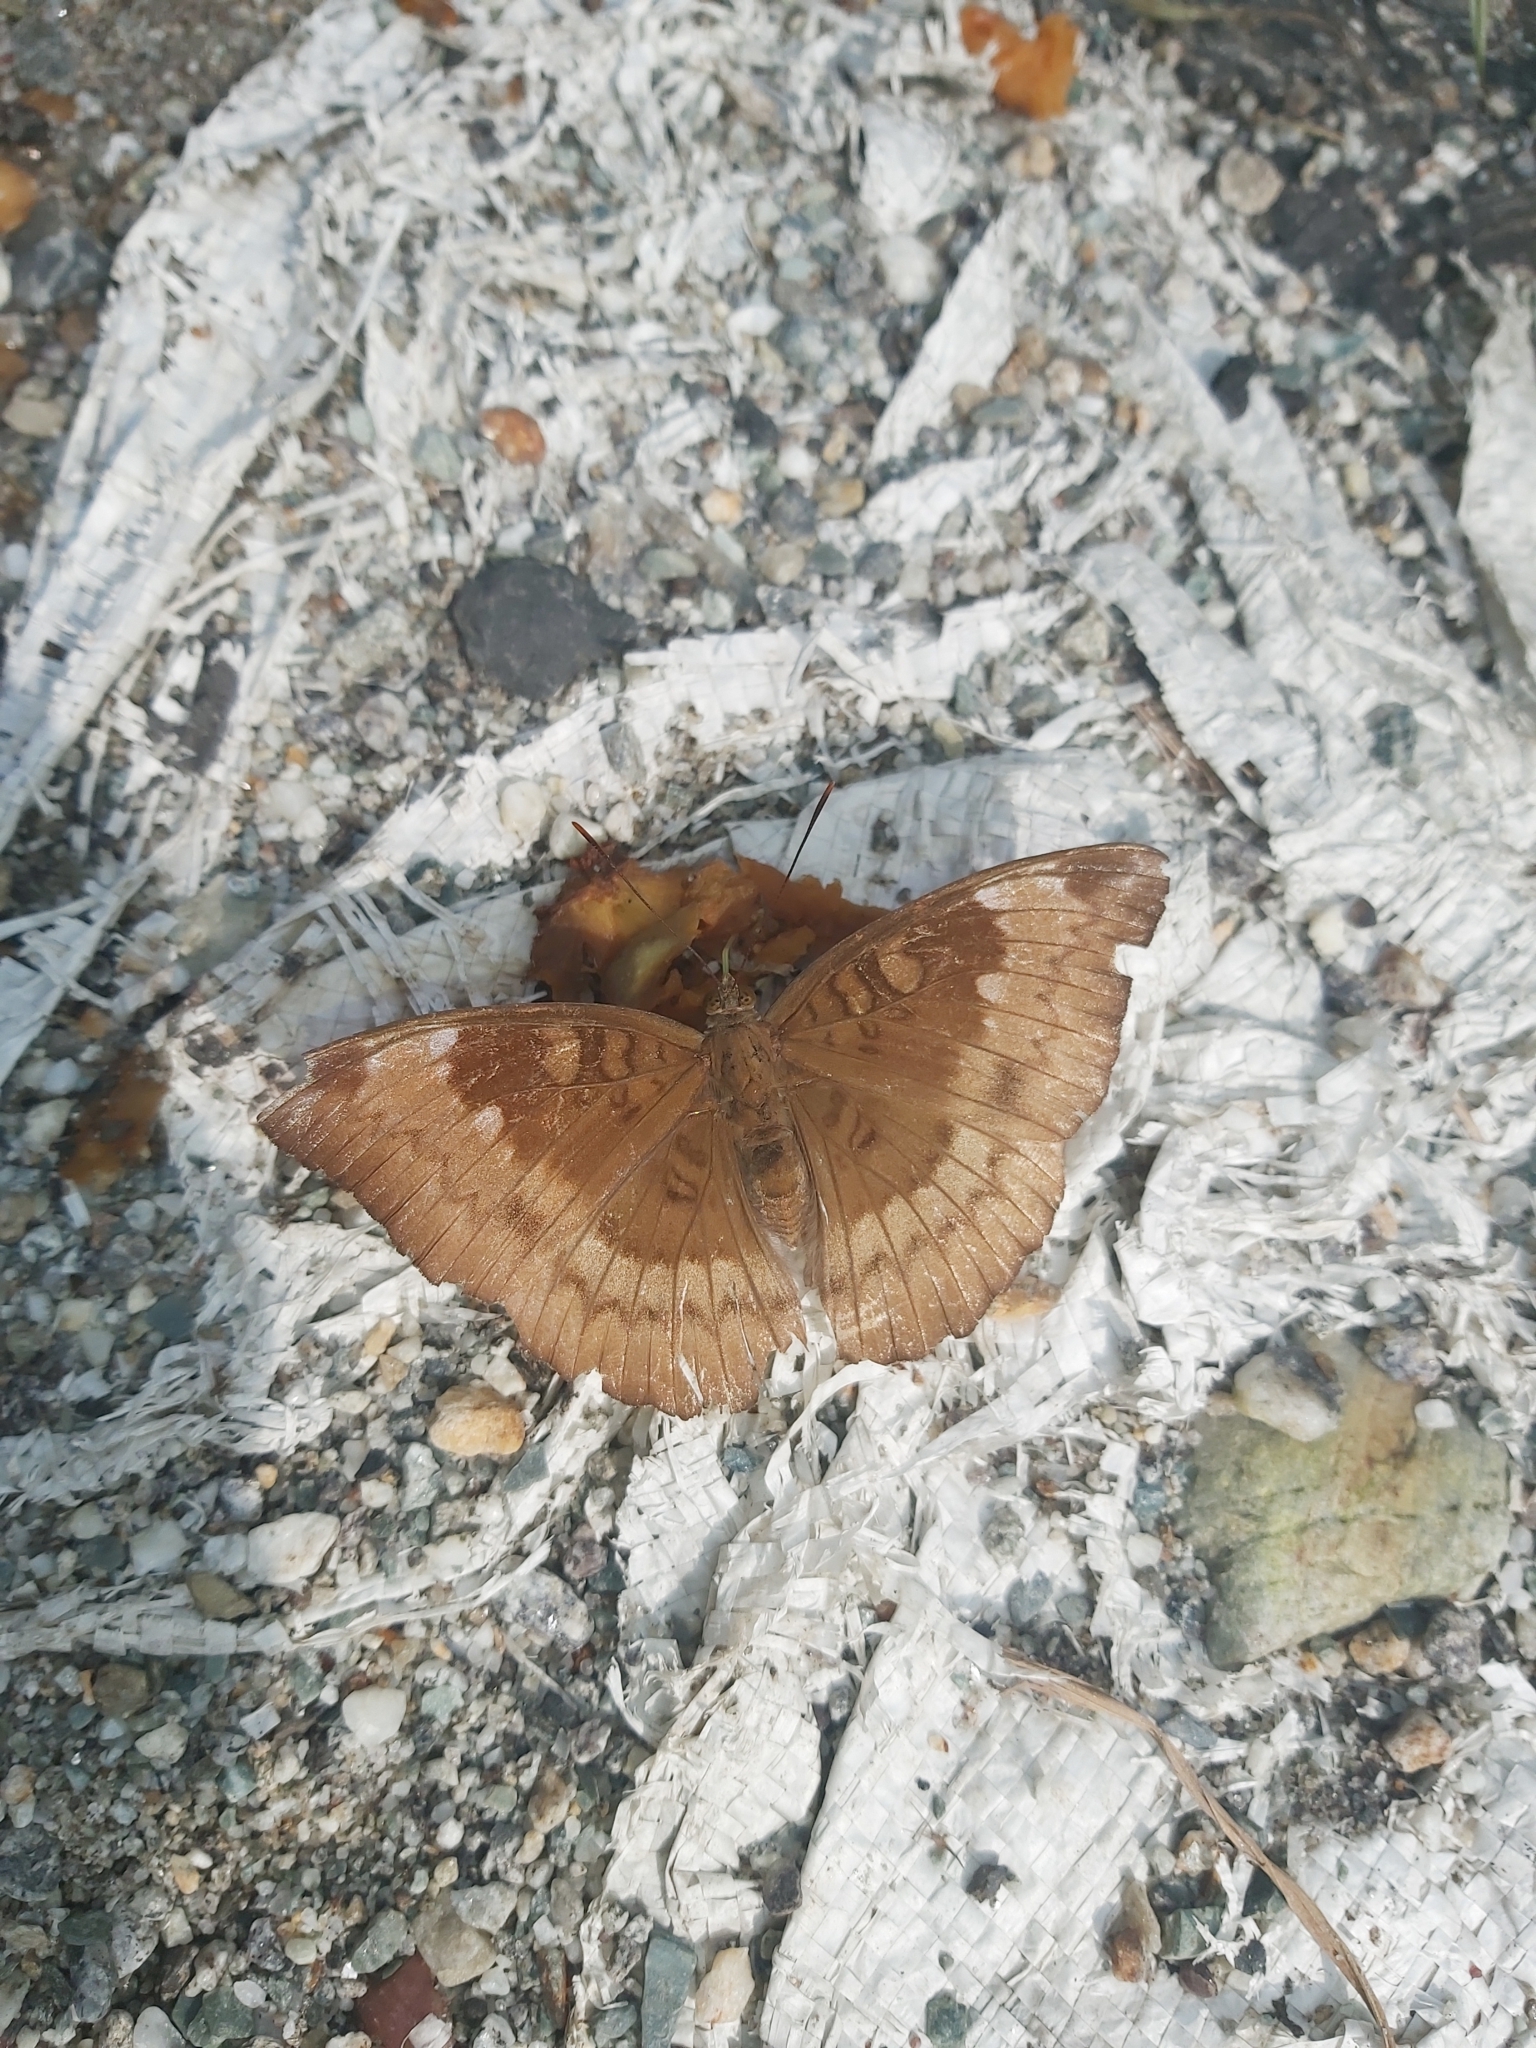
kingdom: Animalia
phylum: Arthropoda
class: Insecta
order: Lepidoptera
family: Nymphalidae
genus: Euthalia
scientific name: Euthalia monina
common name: Powdered baron
